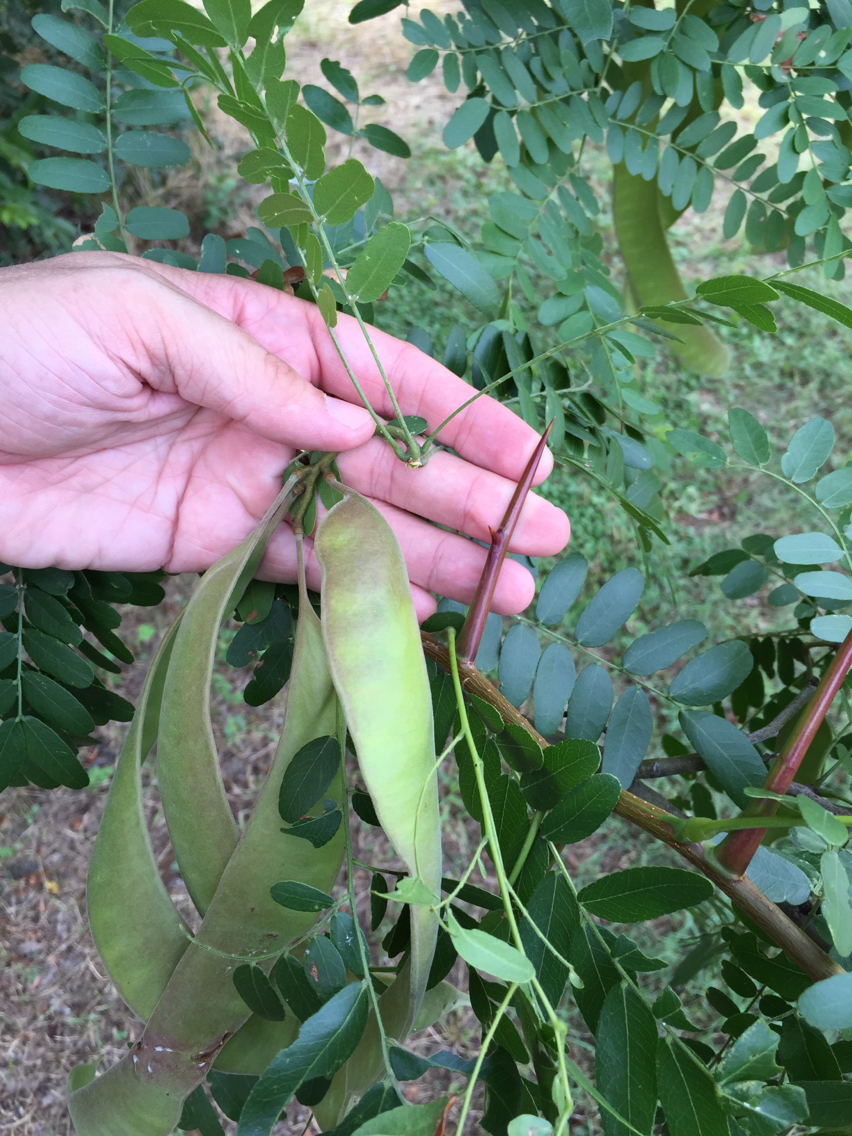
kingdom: Plantae
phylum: Tracheophyta
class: Magnoliopsida
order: Fabales
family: Fabaceae
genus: Gleditsia
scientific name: Gleditsia triacanthos
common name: Common honeylocust
